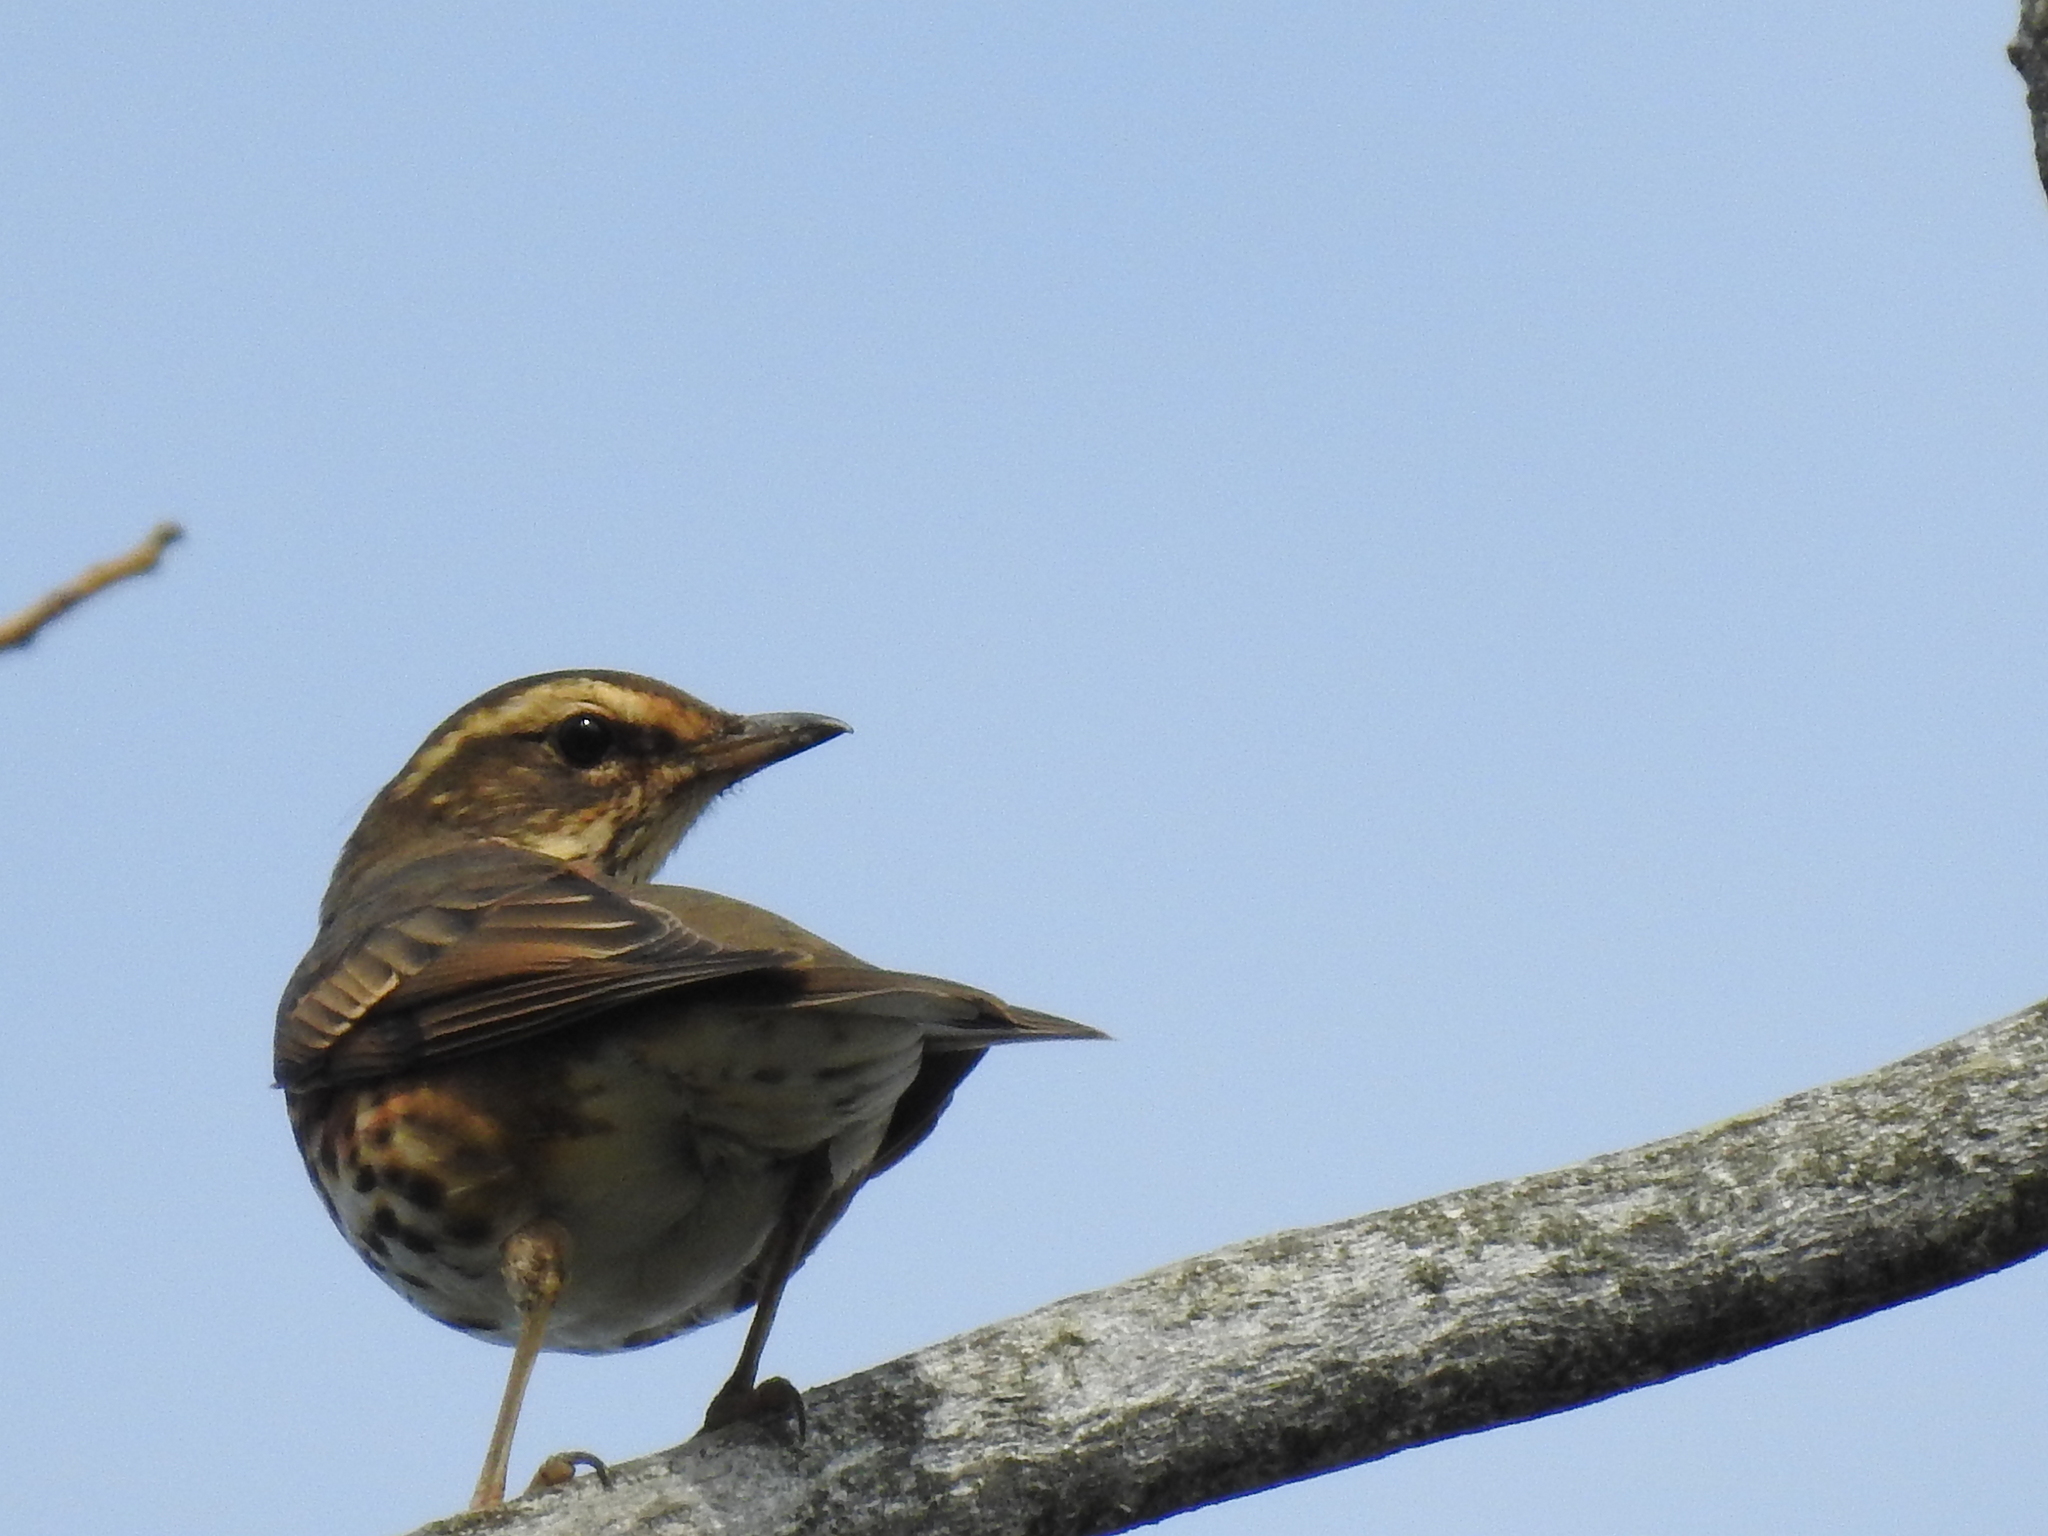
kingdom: Animalia
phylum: Chordata
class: Aves
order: Passeriformes
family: Turdidae
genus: Turdus
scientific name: Turdus iliacus
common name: Redwing
